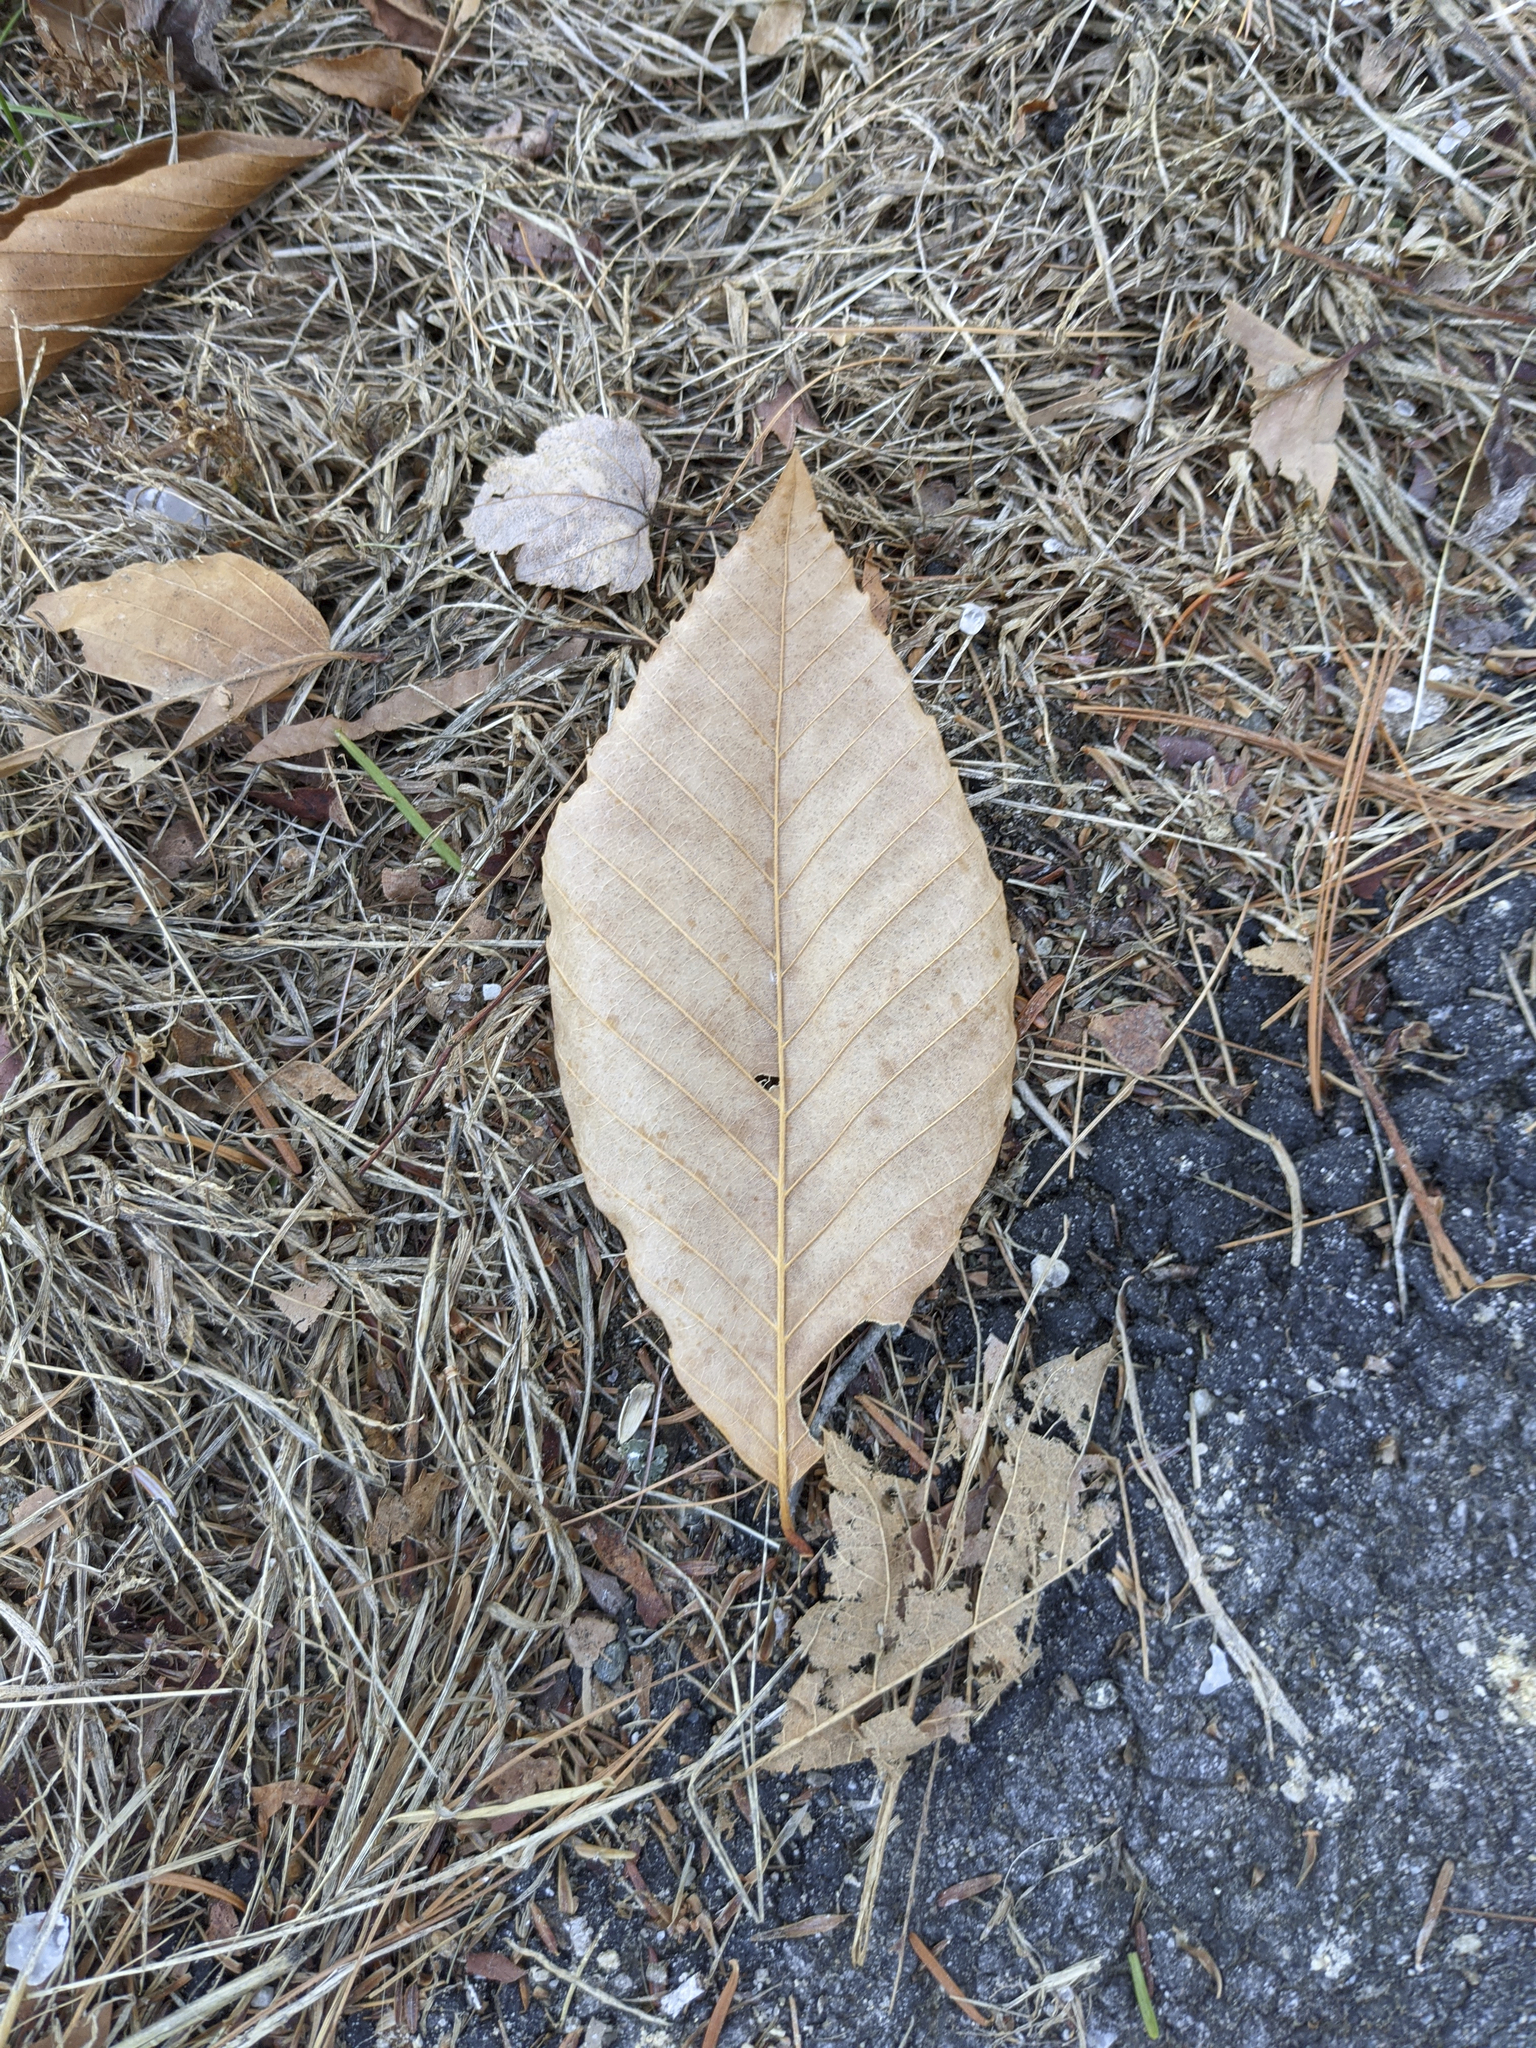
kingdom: Plantae
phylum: Tracheophyta
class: Magnoliopsida
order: Fagales
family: Fagaceae
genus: Fagus
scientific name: Fagus grandifolia
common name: American beech
